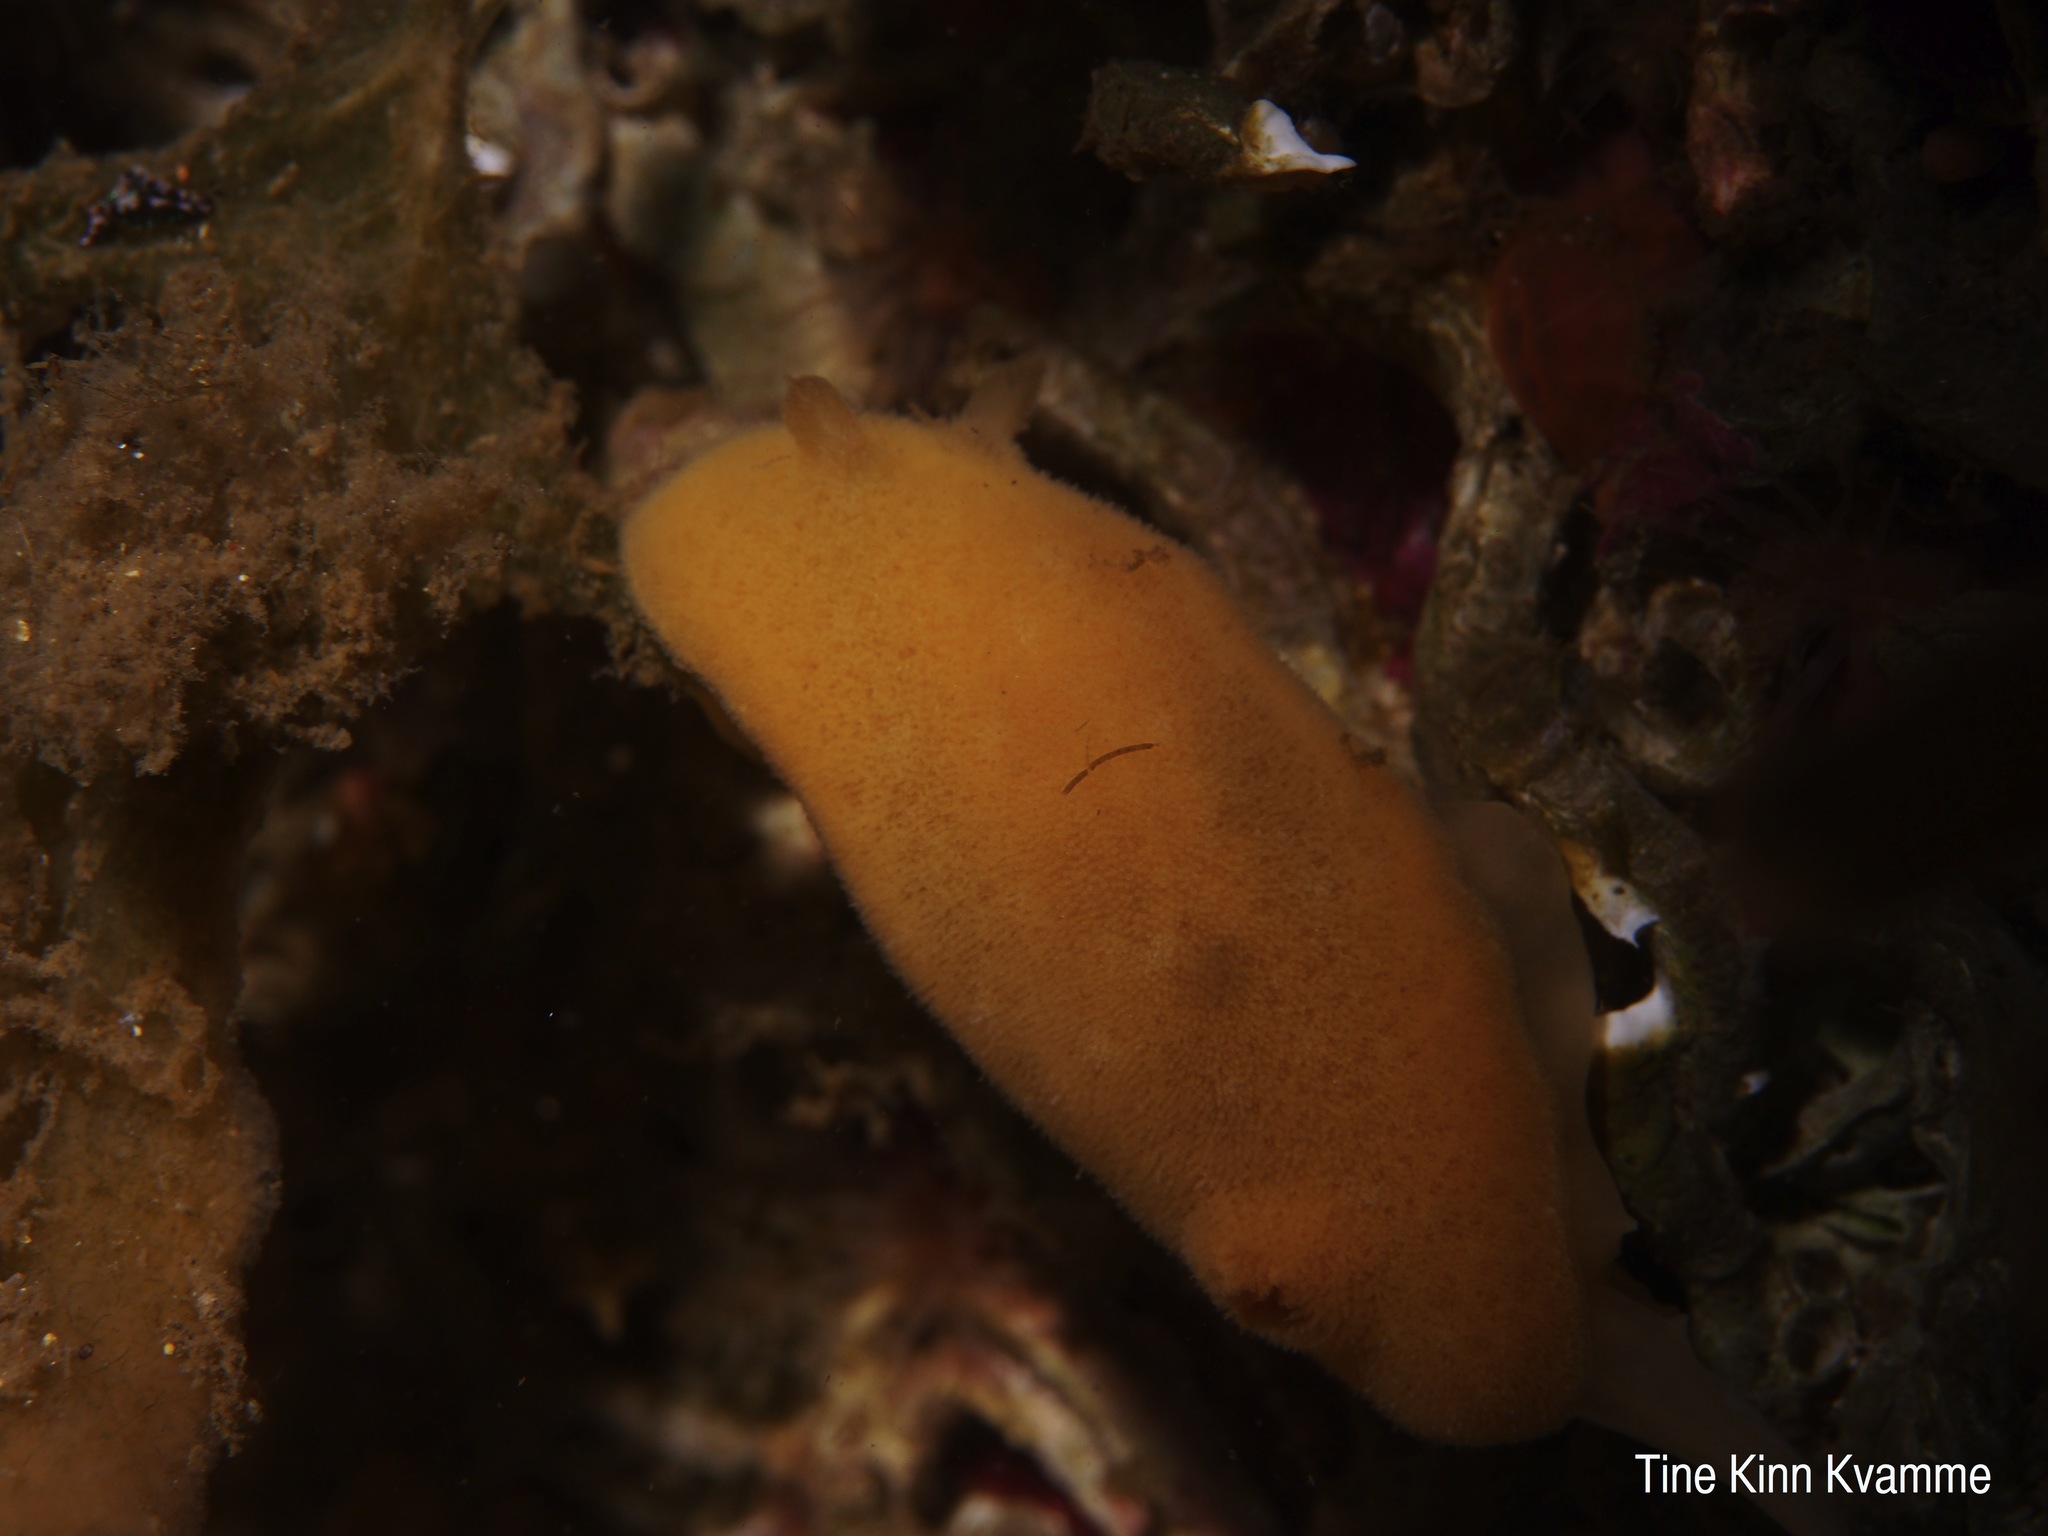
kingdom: Animalia
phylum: Mollusca
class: Gastropoda
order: Nudibranchia
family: Discodorididae
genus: Jorunna
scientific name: Jorunna tomentosa
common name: Grey sea slug
